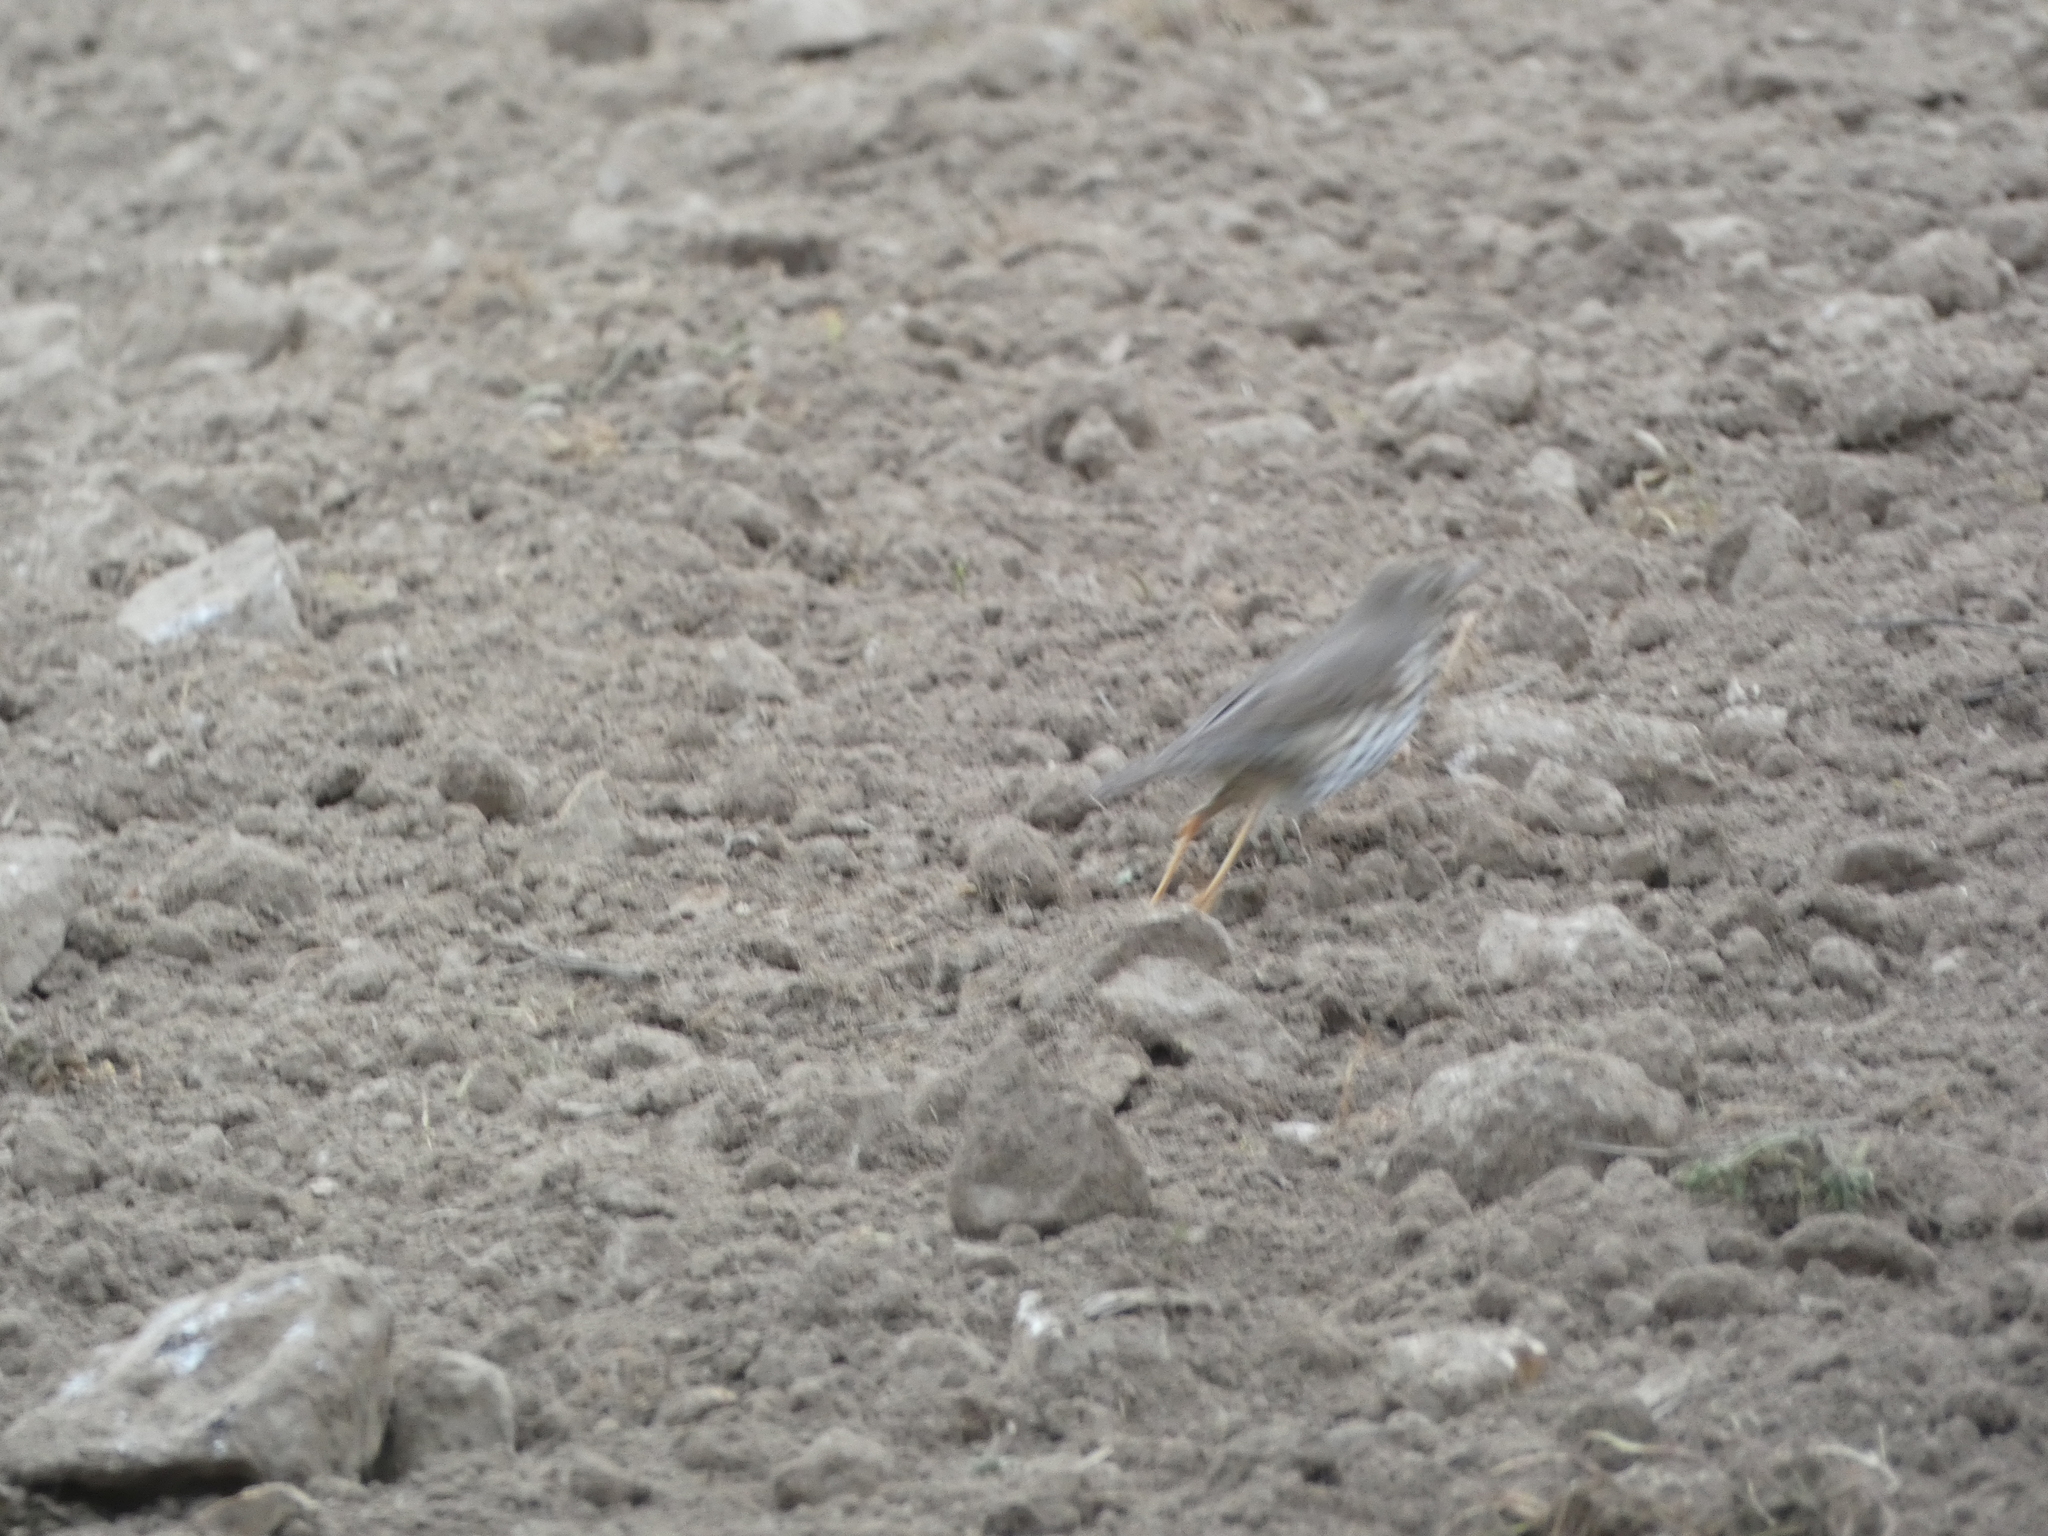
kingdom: Animalia
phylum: Chordata
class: Aves
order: Passeriformes
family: Turdidae
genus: Turdus
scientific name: Turdus philomelos
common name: Song thrush
